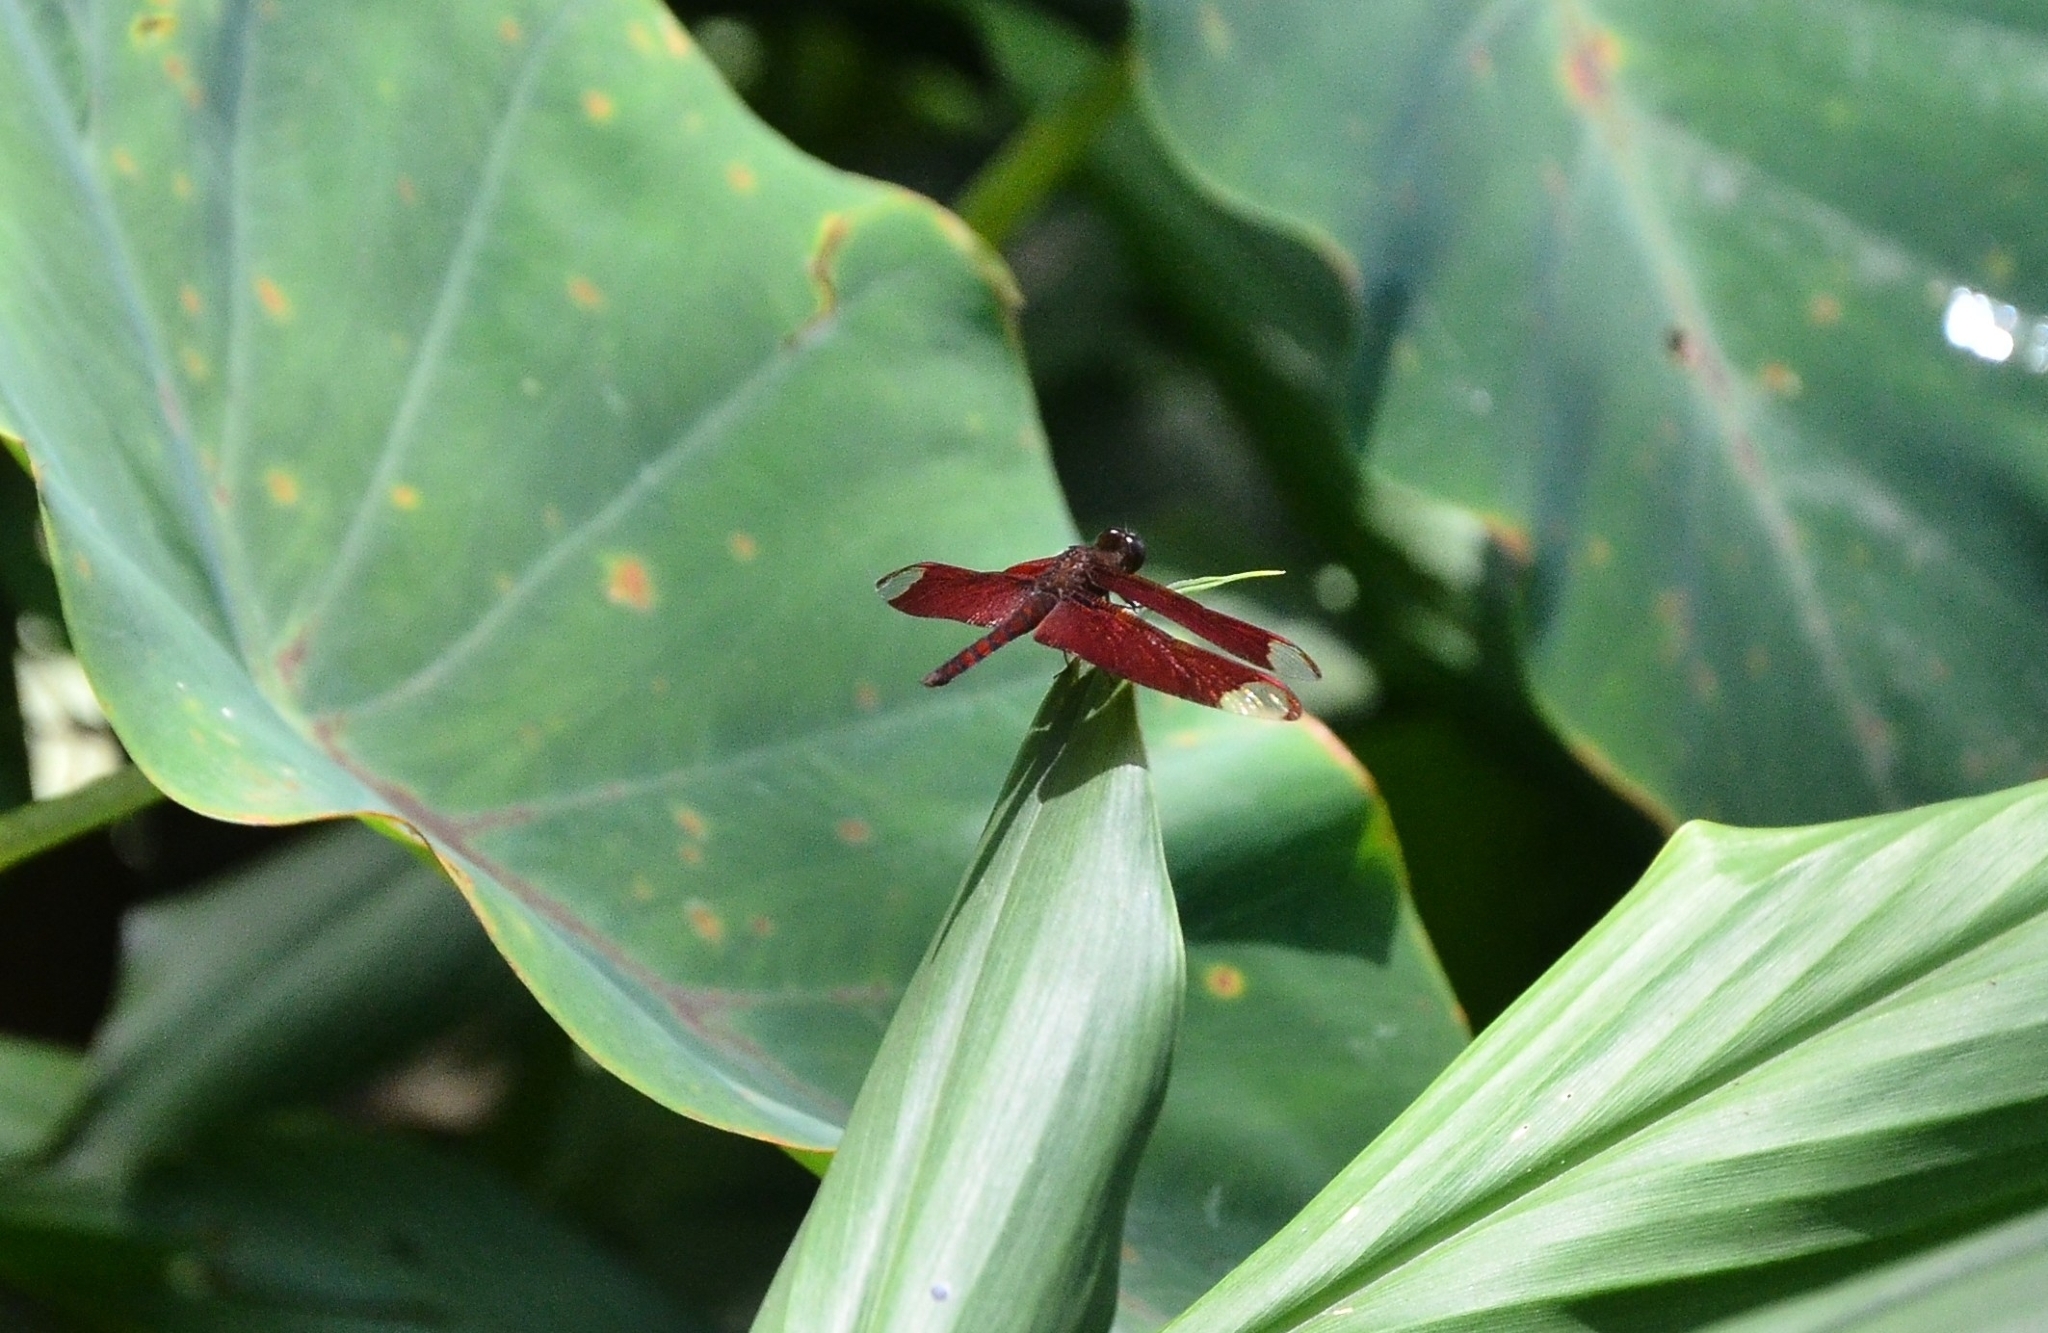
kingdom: Animalia
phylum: Arthropoda
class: Insecta
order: Odonata
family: Libellulidae
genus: Neurothemis
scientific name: Neurothemis fulvia
